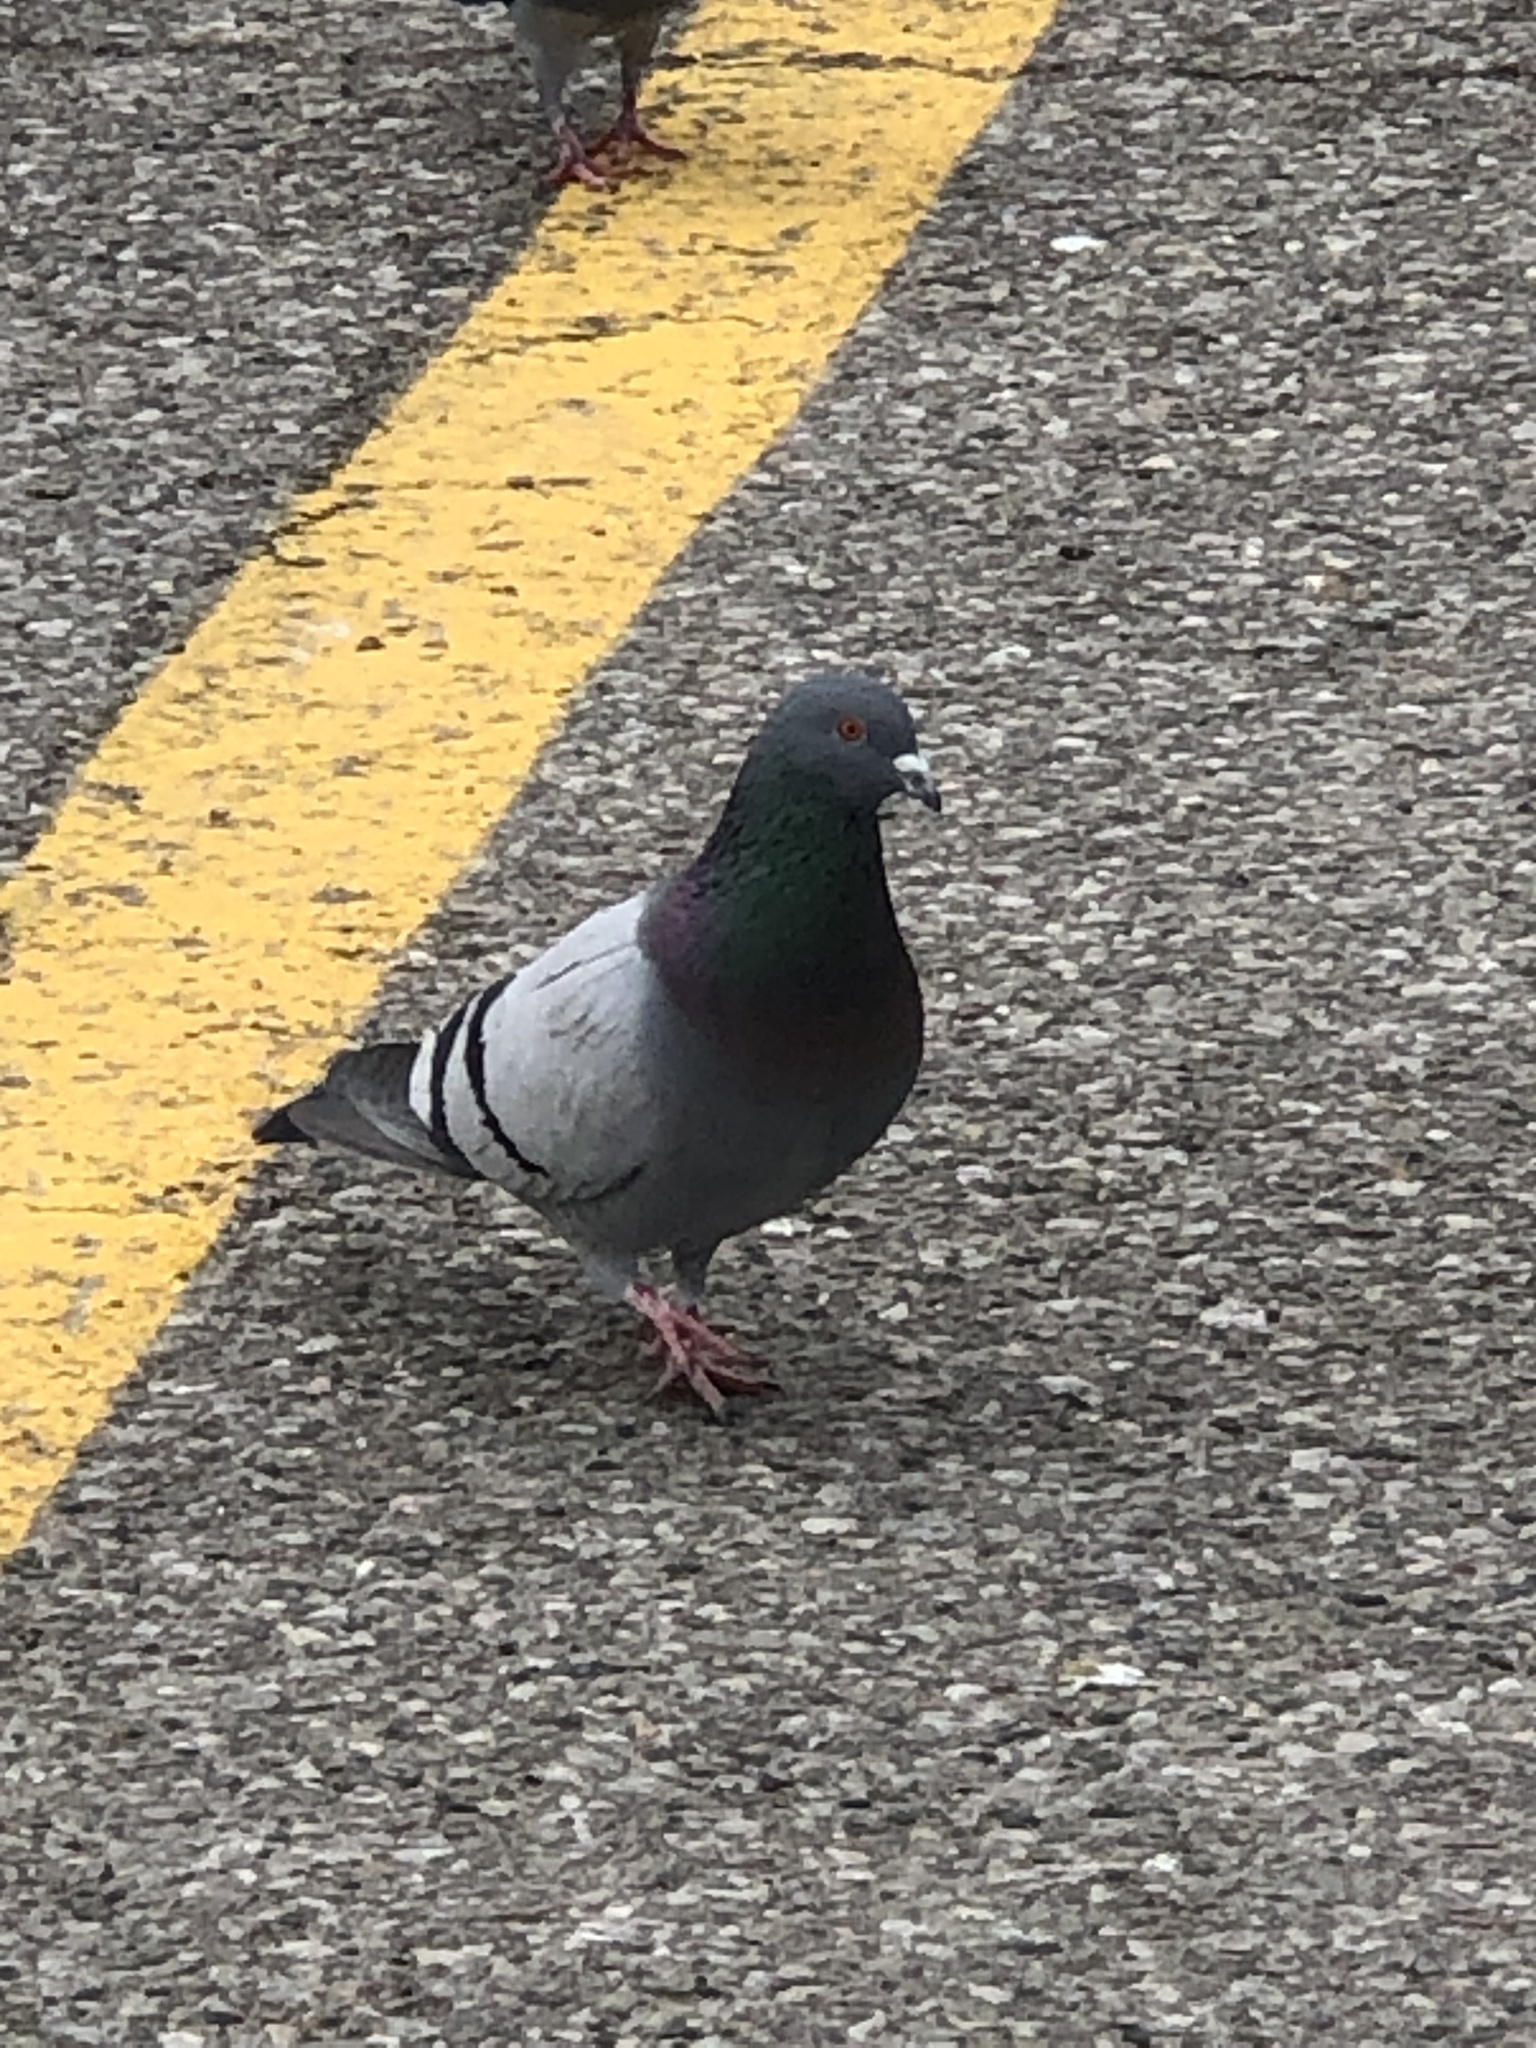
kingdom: Animalia
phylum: Chordata
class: Aves
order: Columbiformes
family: Columbidae
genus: Columba
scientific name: Columba livia
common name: Rock pigeon
